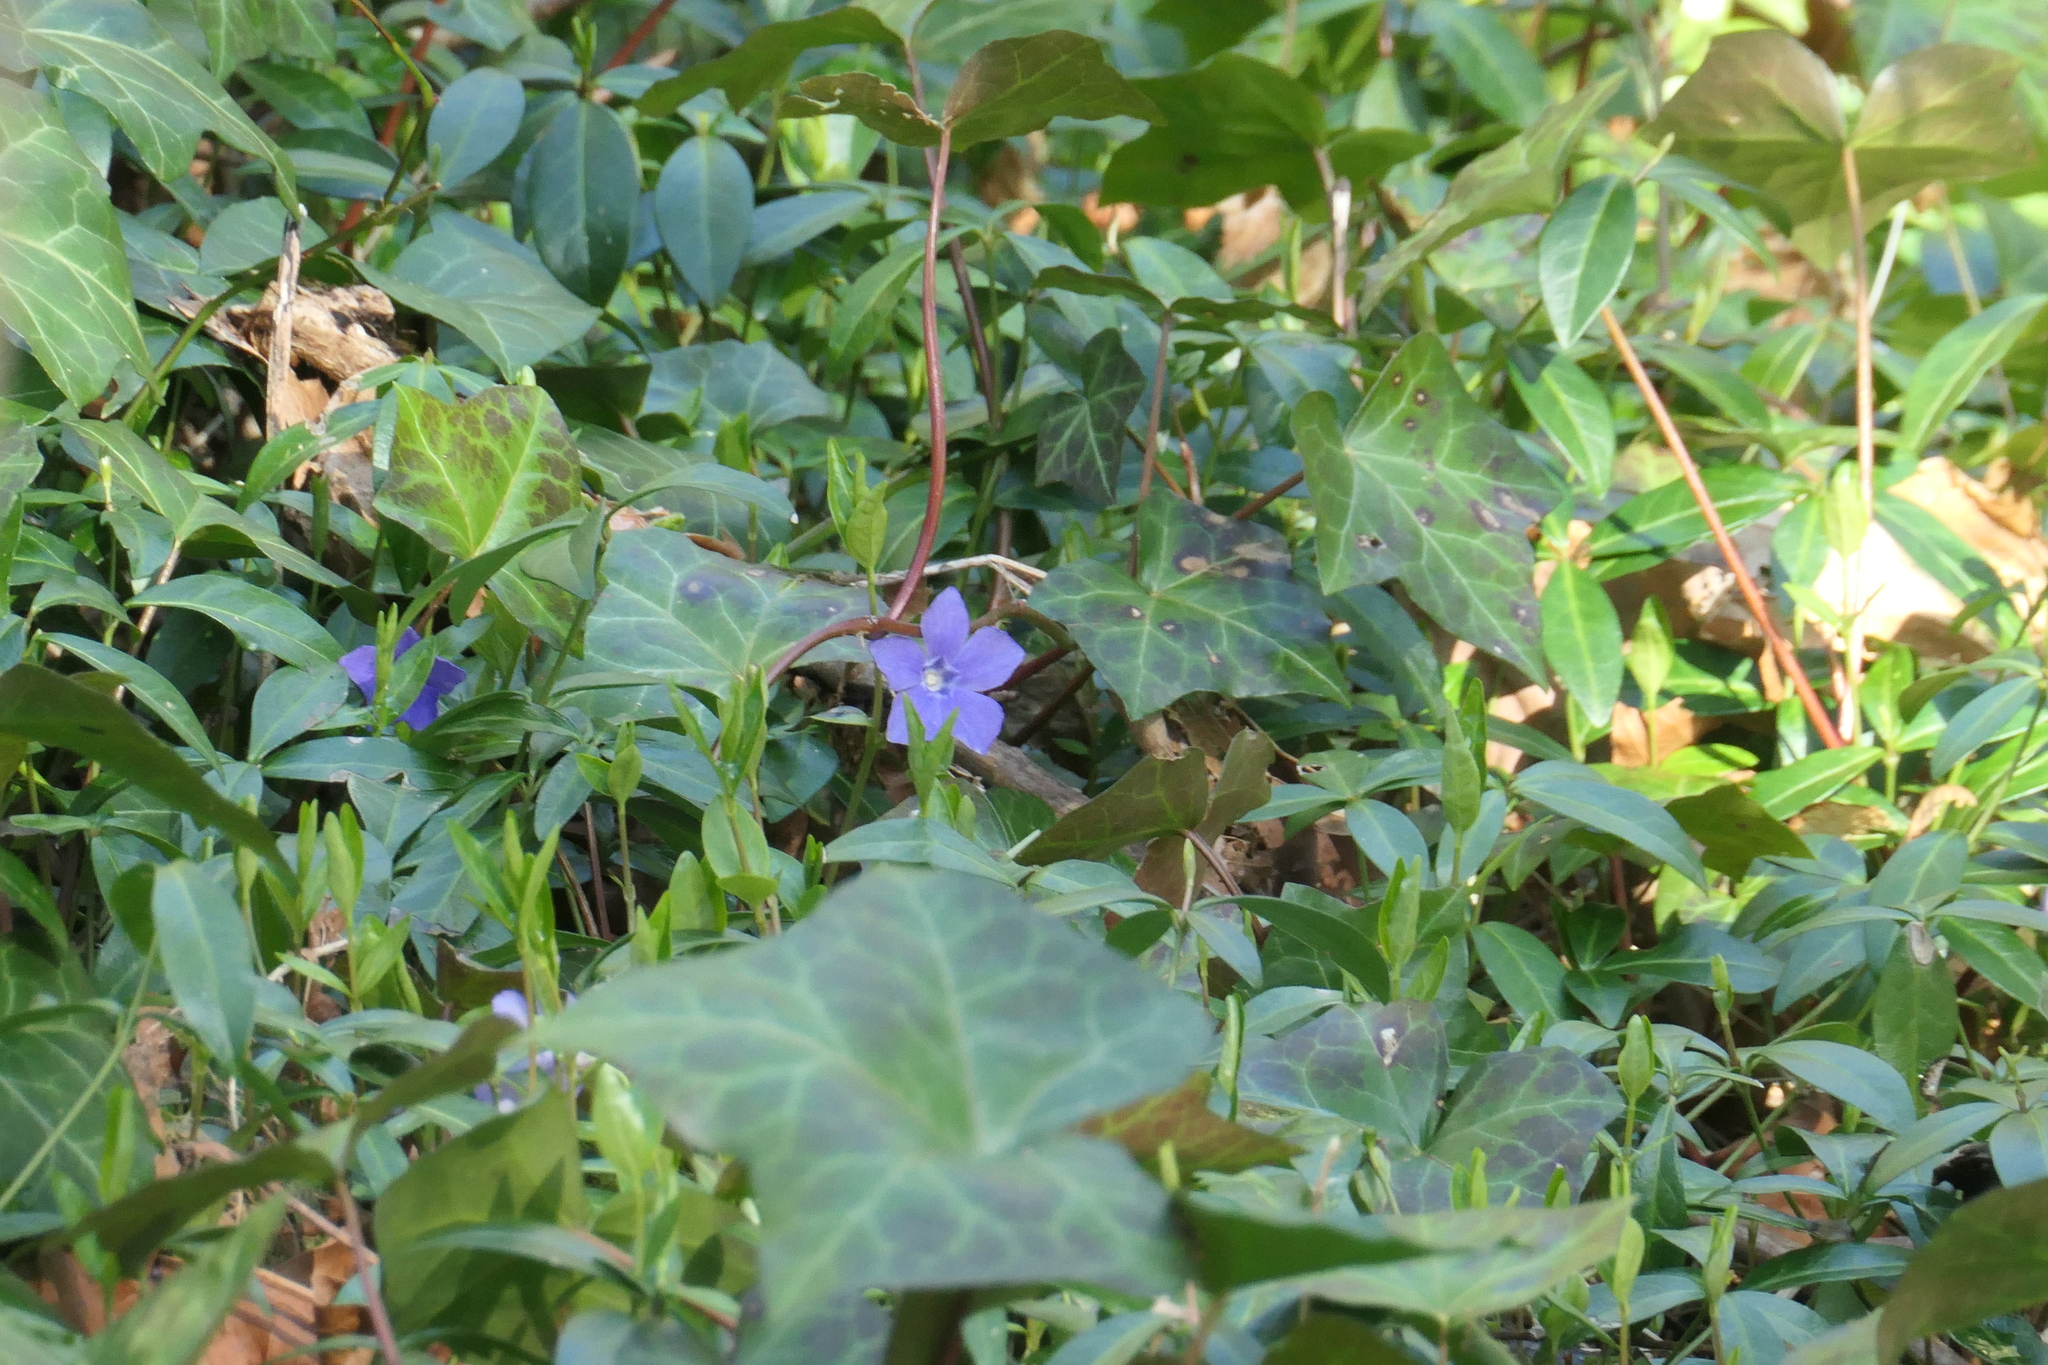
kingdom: Plantae
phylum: Tracheophyta
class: Magnoliopsida
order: Gentianales
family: Apocynaceae
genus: Vinca
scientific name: Vinca minor
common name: Lesser periwinkle
